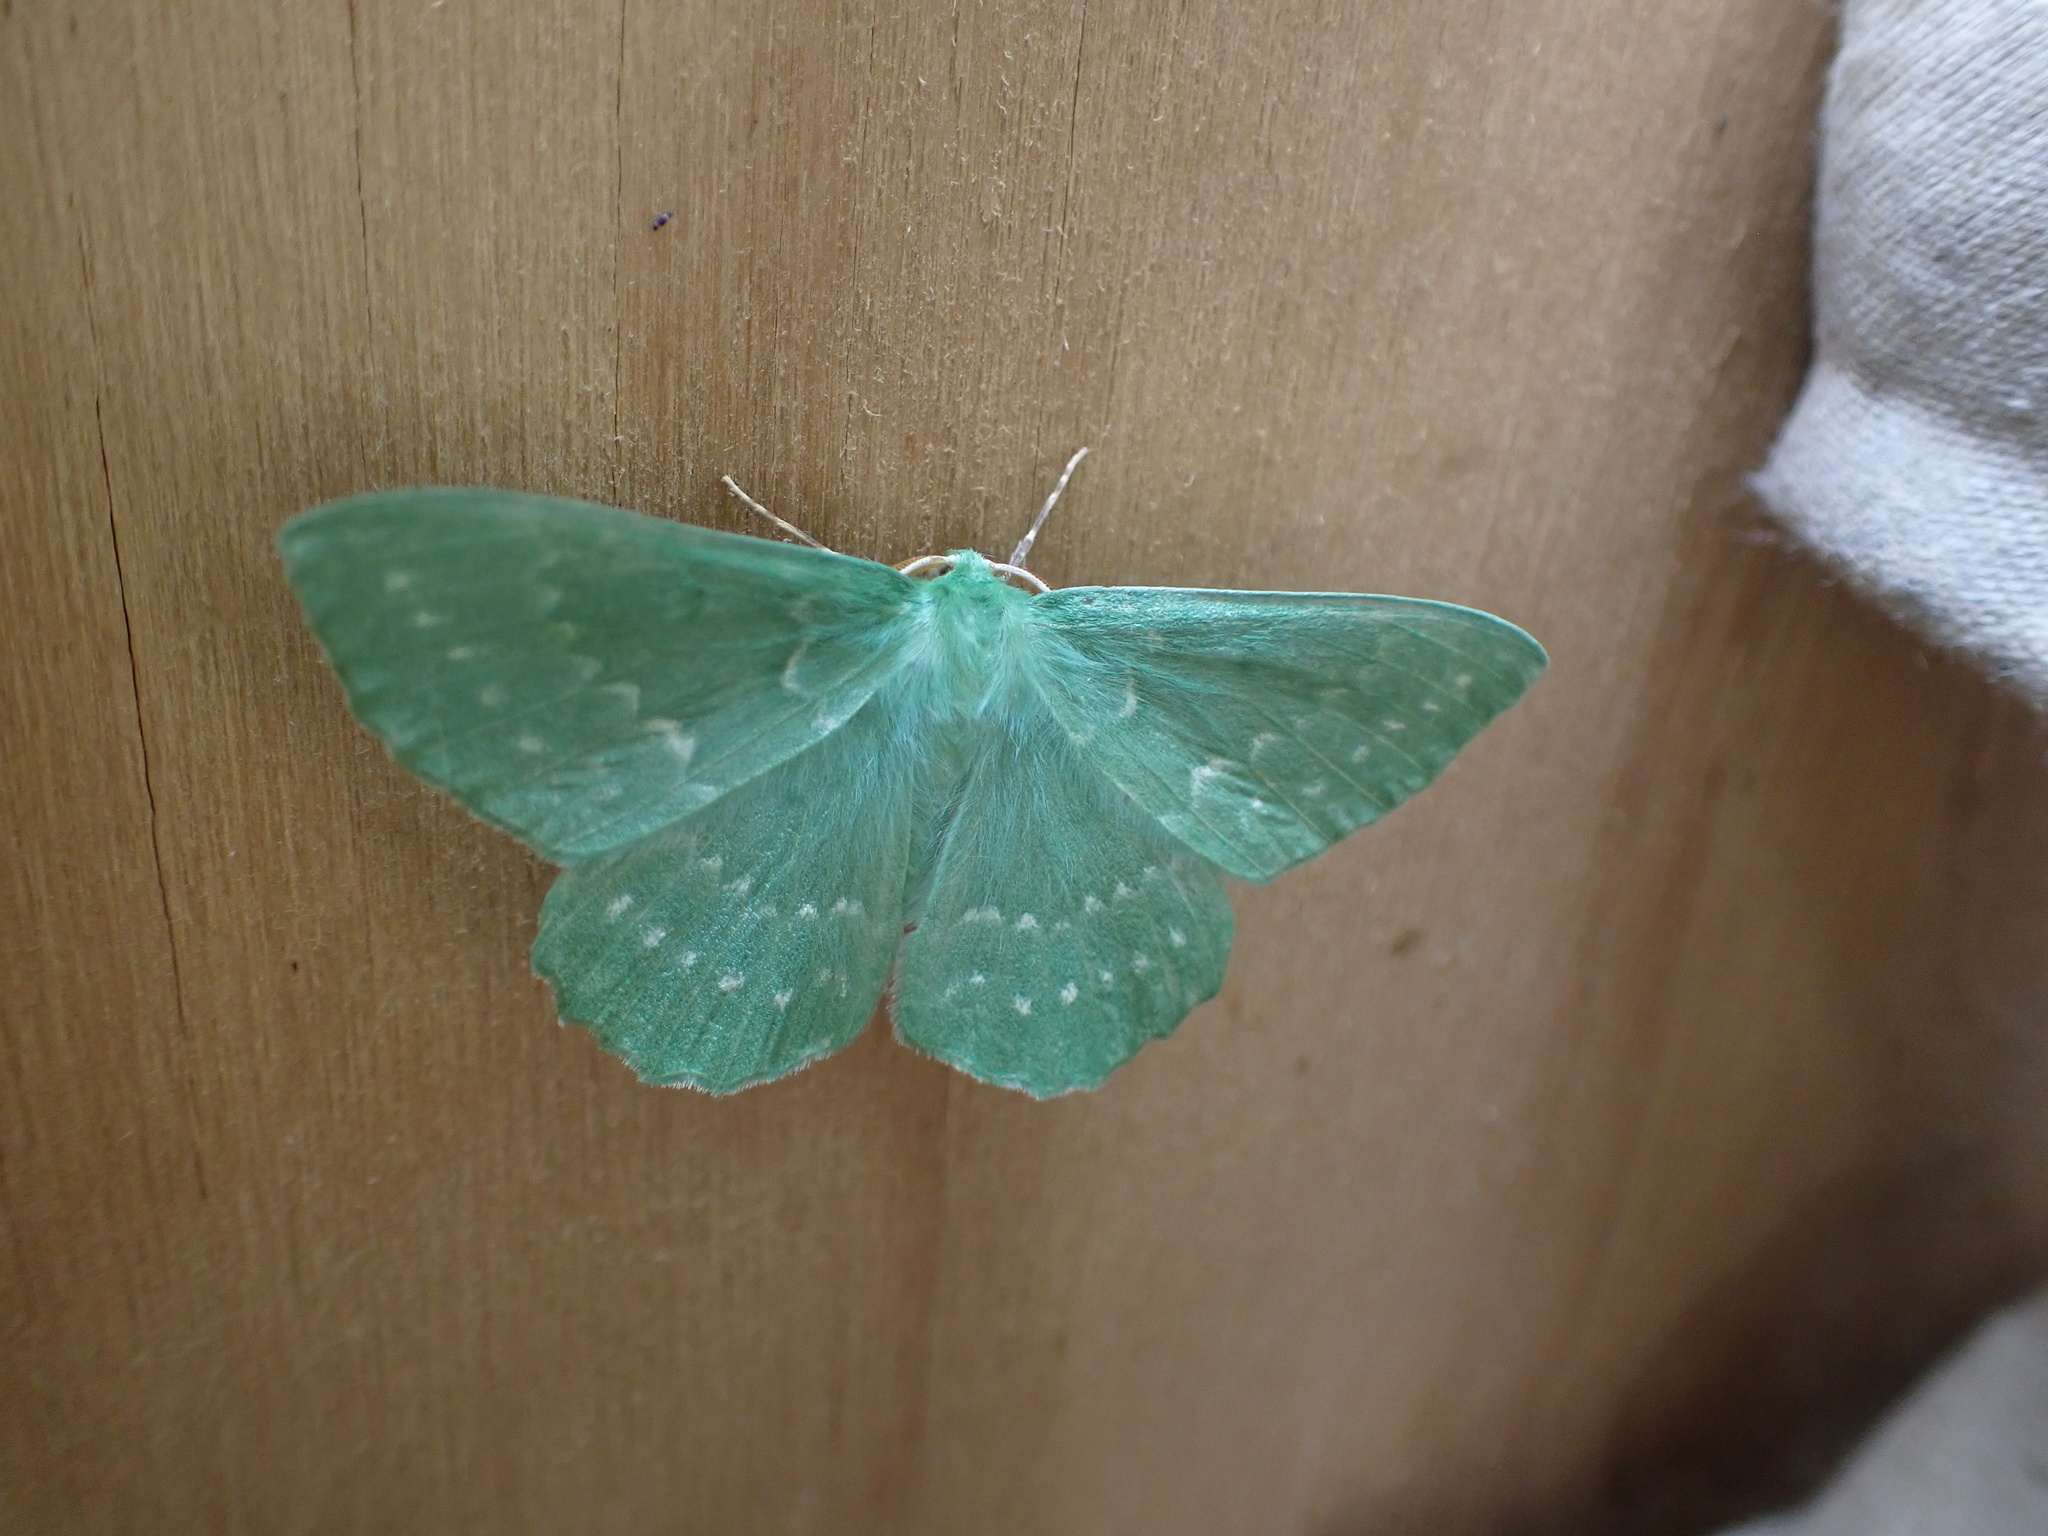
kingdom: Animalia
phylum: Arthropoda
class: Insecta
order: Lepidoptera
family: Geometridae
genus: Geometra
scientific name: Geometra papilionaria
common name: Large emerald
